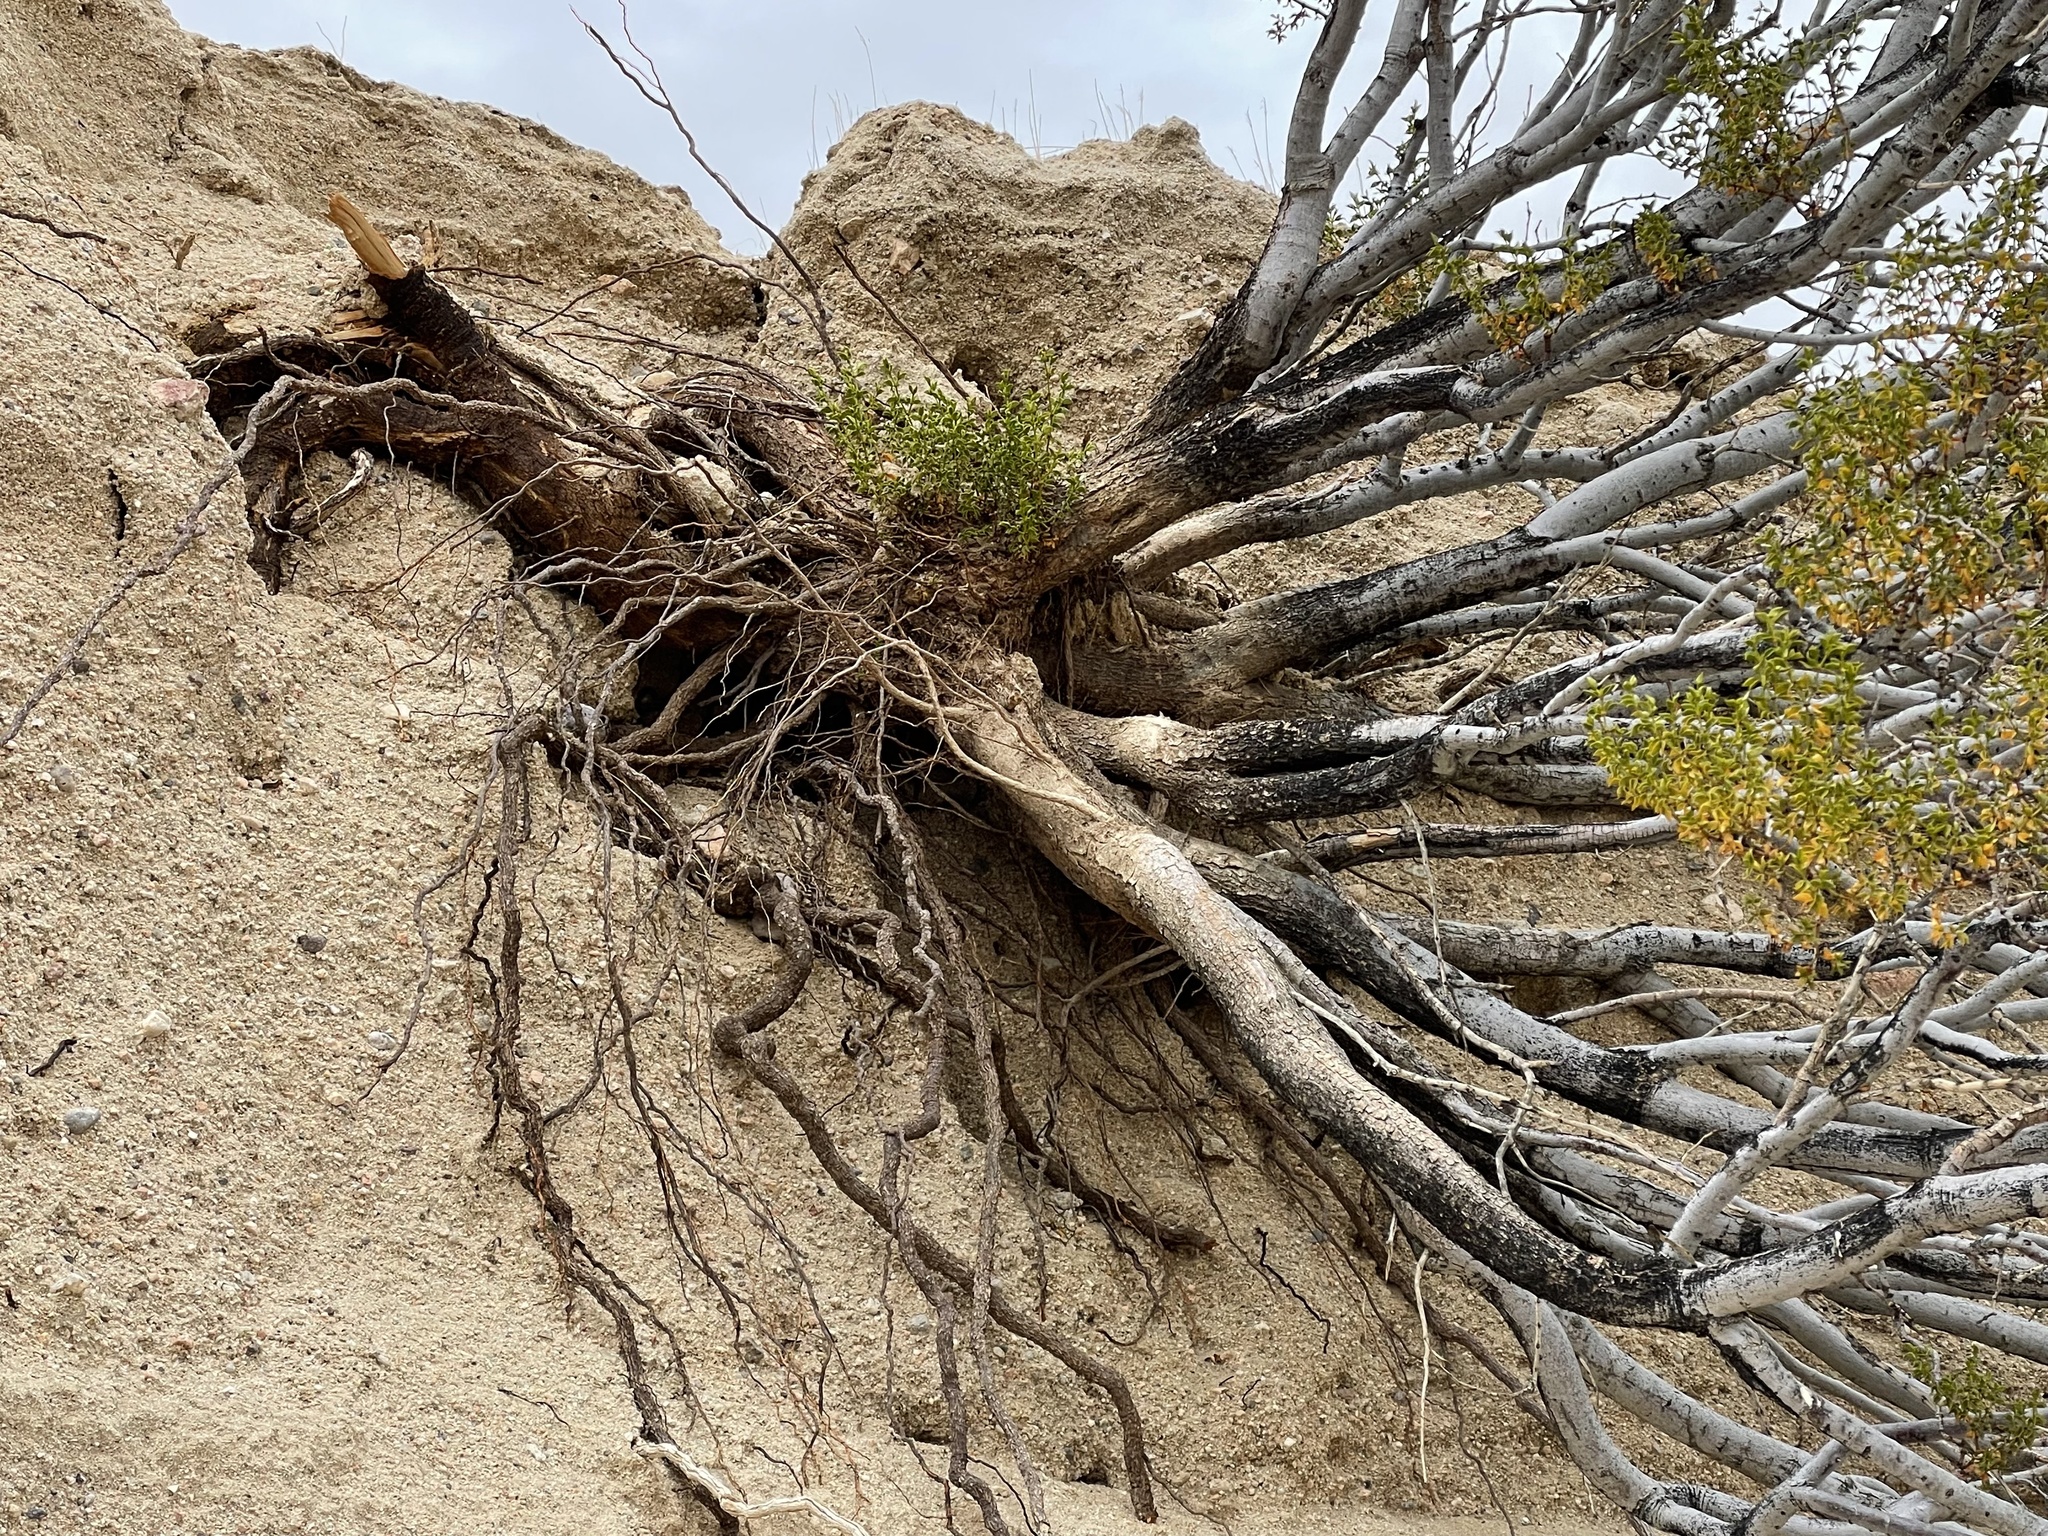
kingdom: Plantae
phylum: Tracheophyta
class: Magnoliopsida
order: Zygophyllales
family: Zygophyllaceae
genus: Larrea
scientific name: Larrea tridentata
